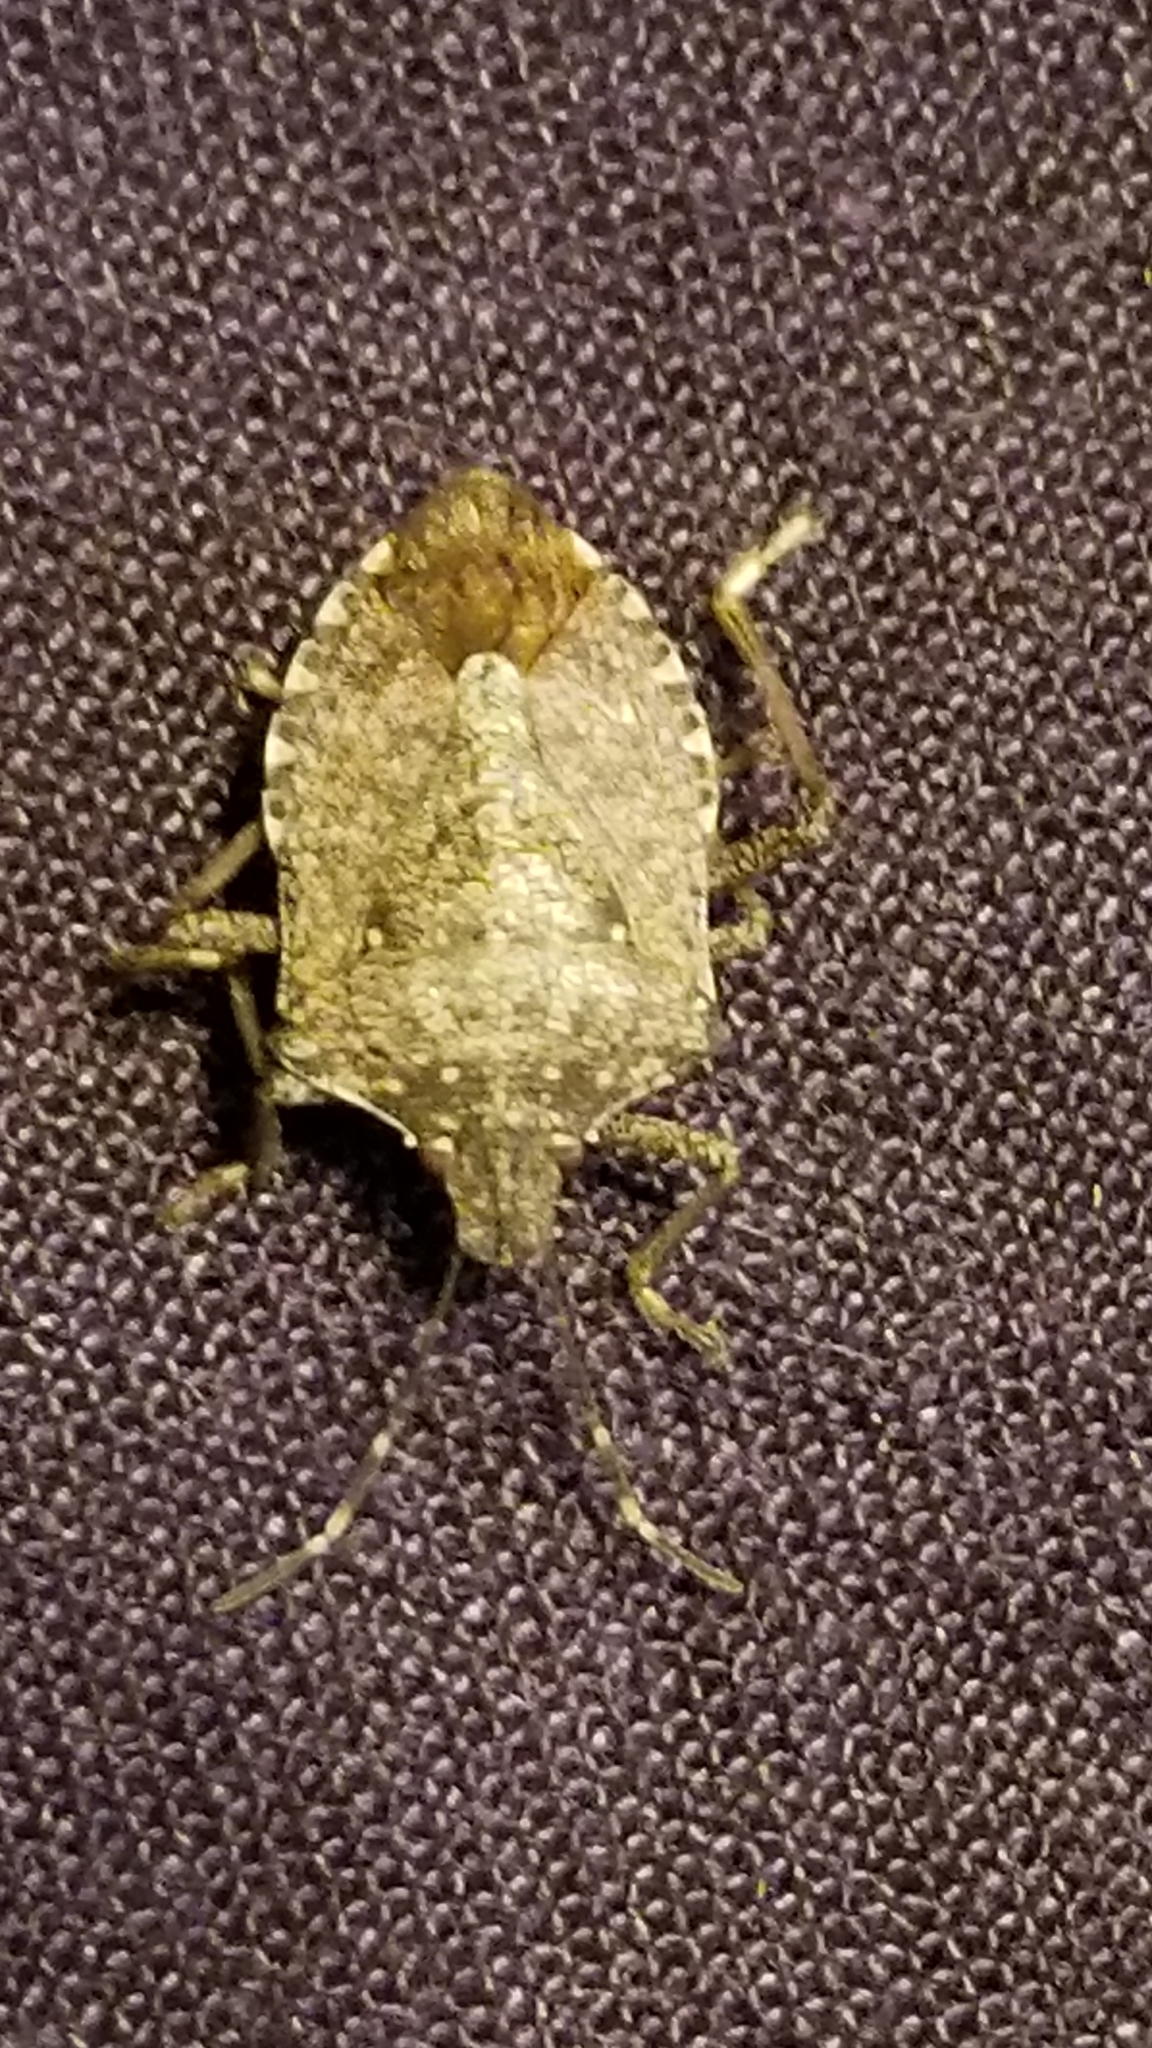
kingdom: Animalia
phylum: Arthropoda
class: Insecta
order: Hemiptera
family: Pentatomidae
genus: Halyomorpha
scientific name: Halyomorpha halys
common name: Brown marmorated stink bug
